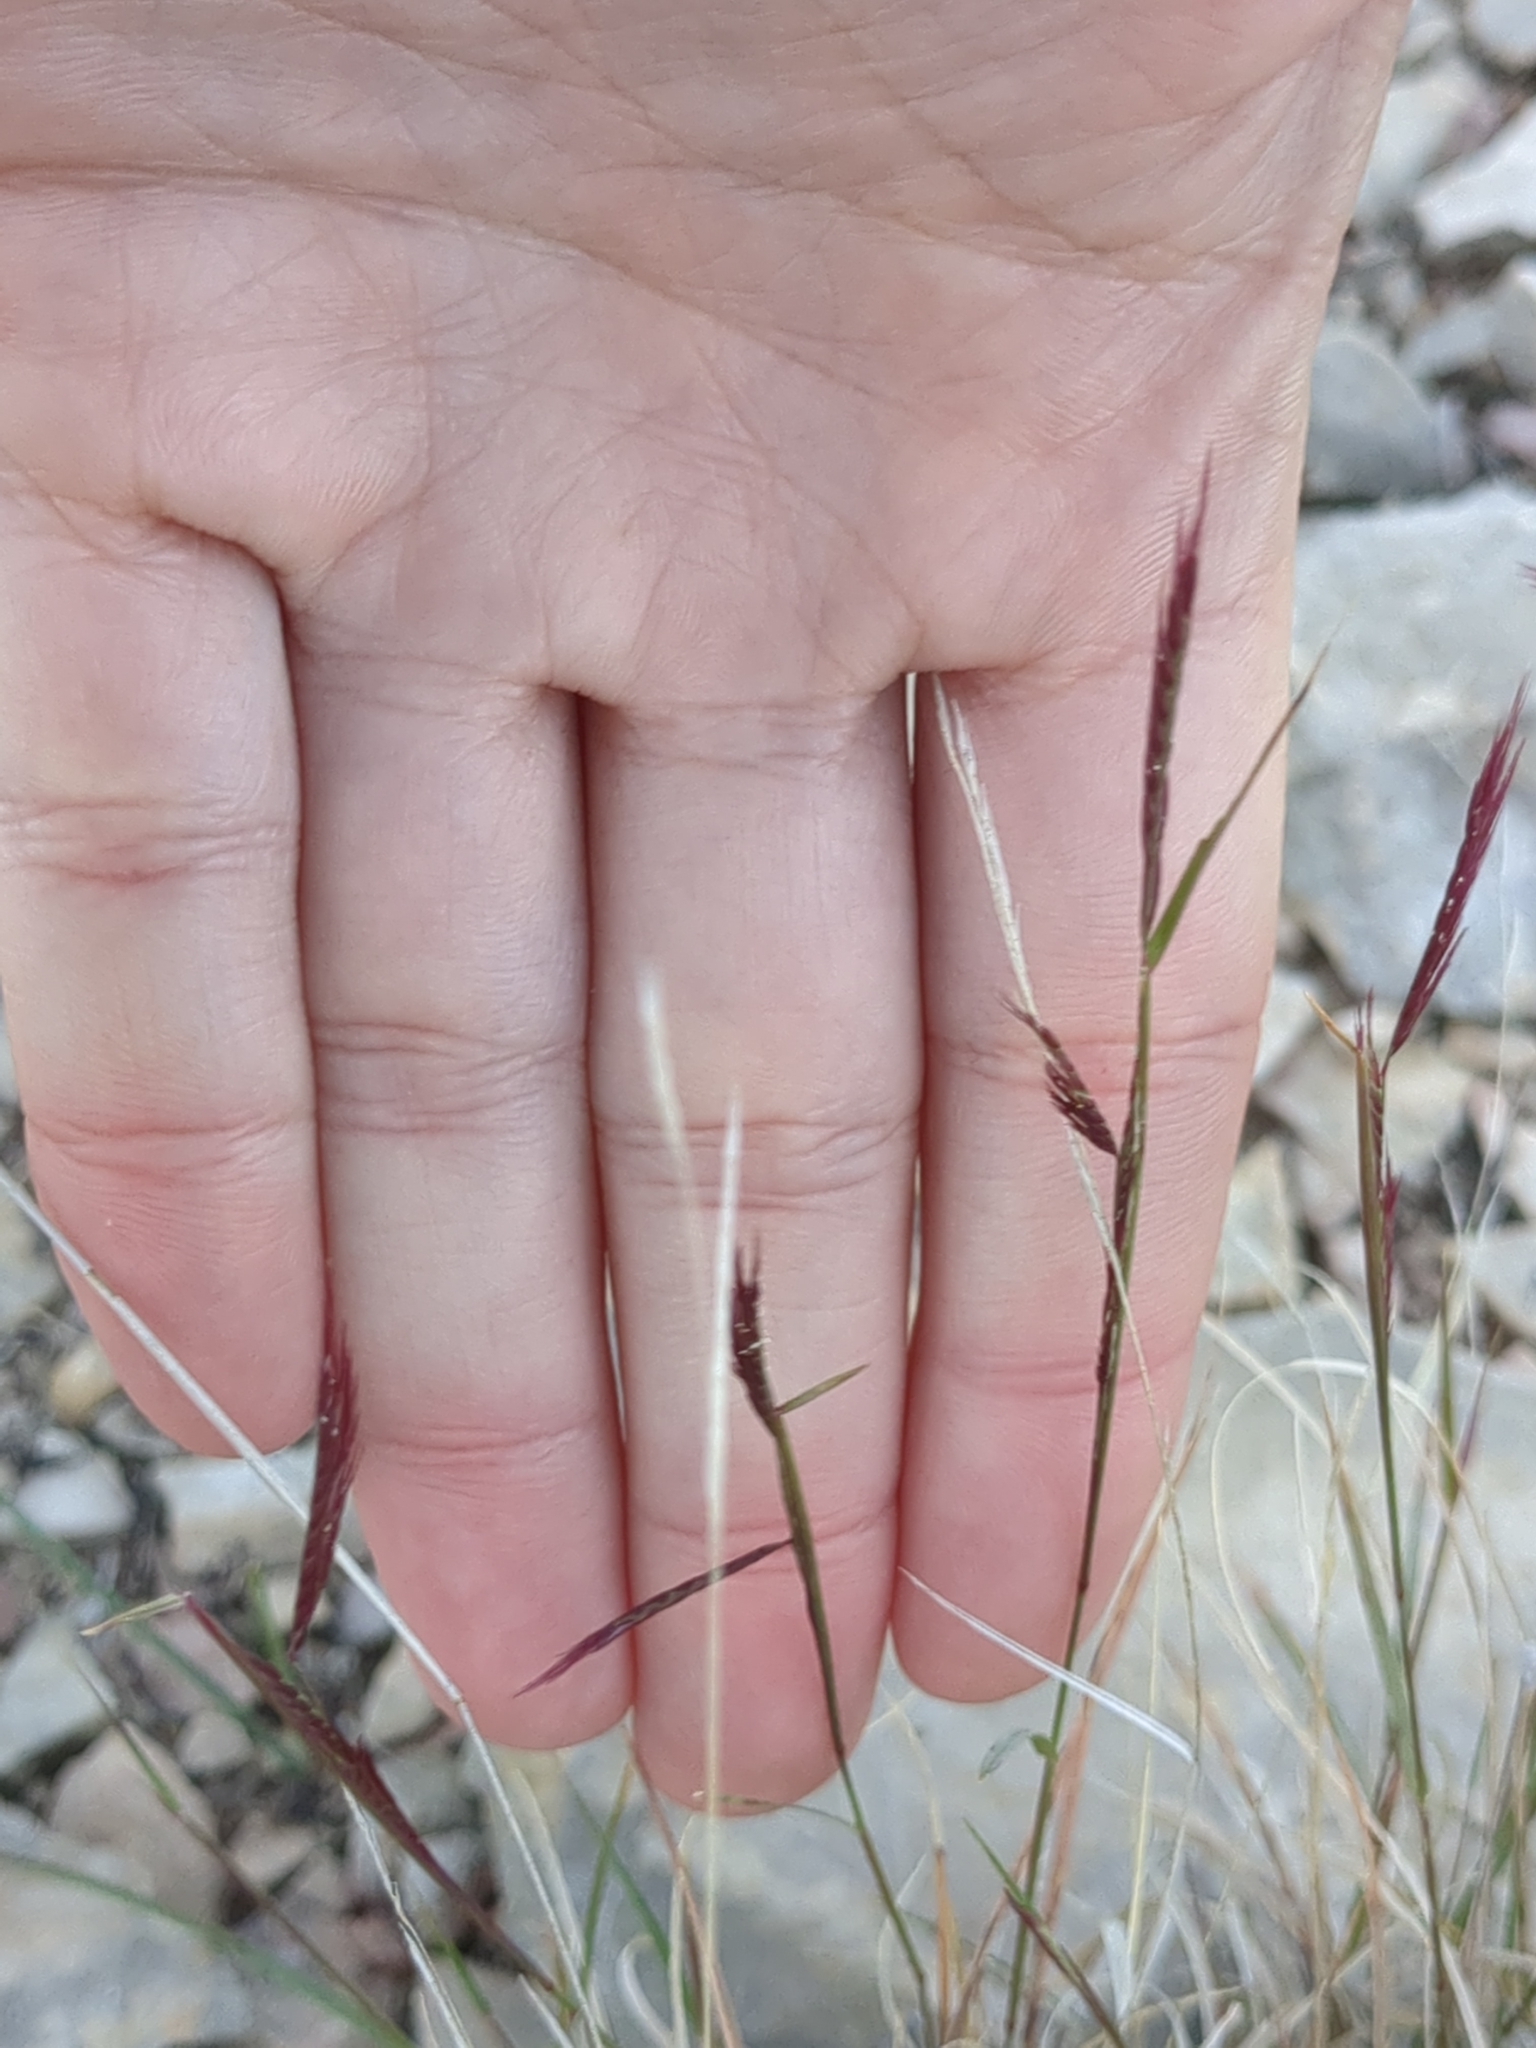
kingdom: Plantae
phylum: Tracheophyta
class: Liliopsida
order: Poales
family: Poaceae
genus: Bouteloua
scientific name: Bouteloua trifida
